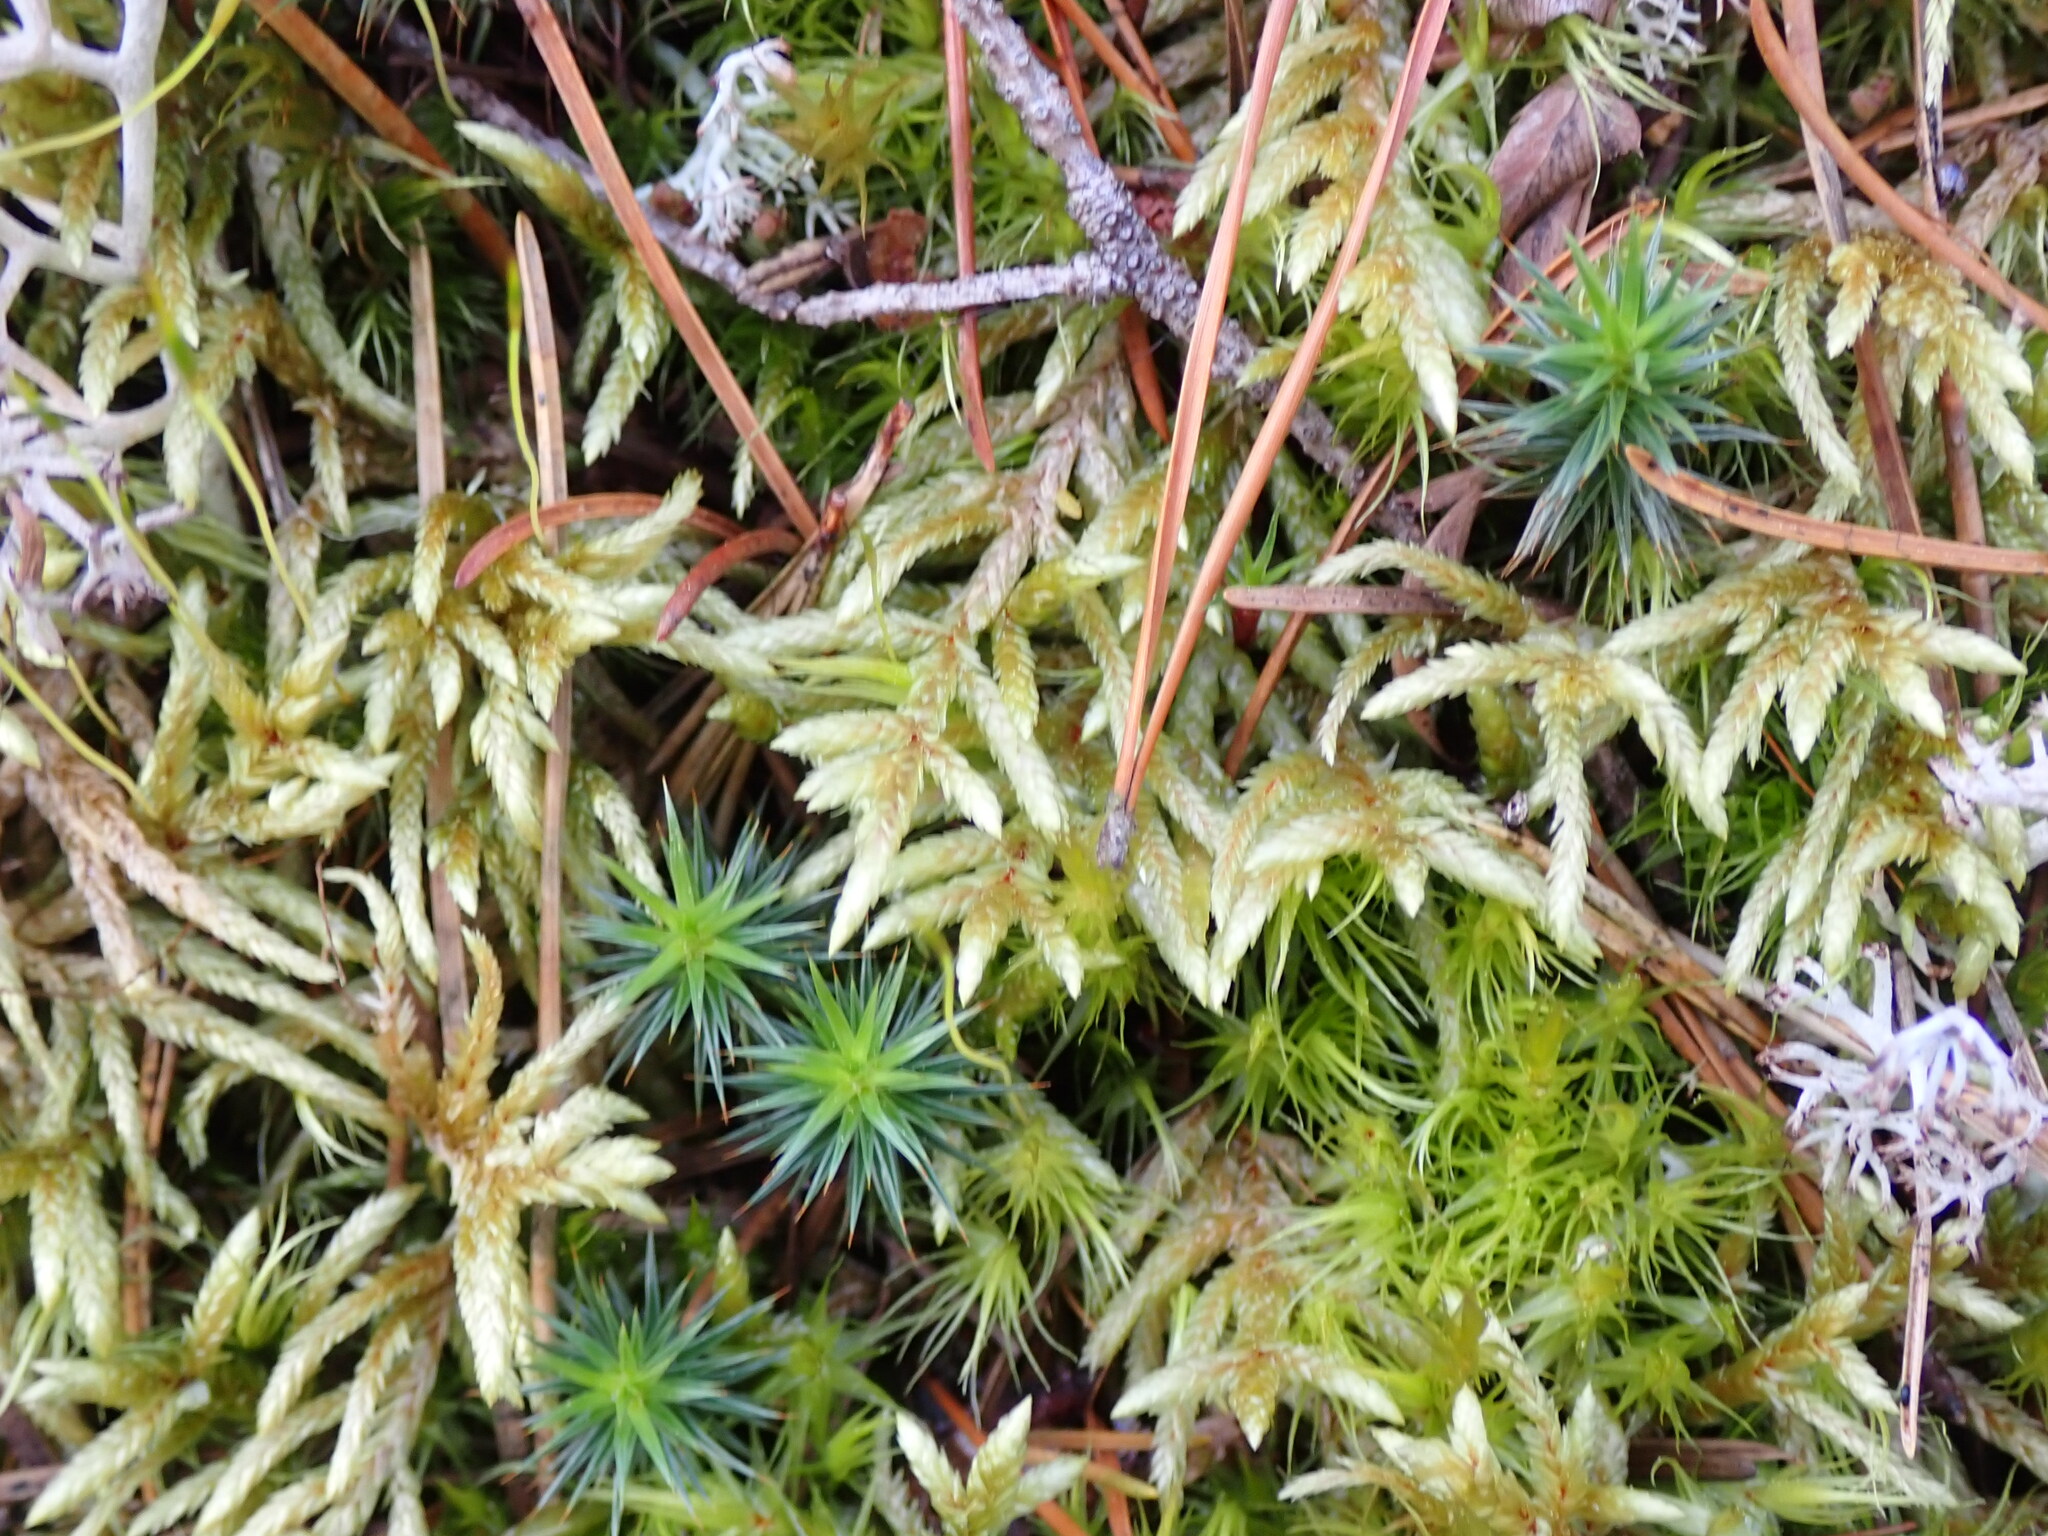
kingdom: Plantae
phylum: Bryophyta
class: Bryopsida
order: Hypnales
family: Hylocomiaceae
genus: Pleurozium
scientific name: Pleurozium schreberi
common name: Red-stemmed feather moss
